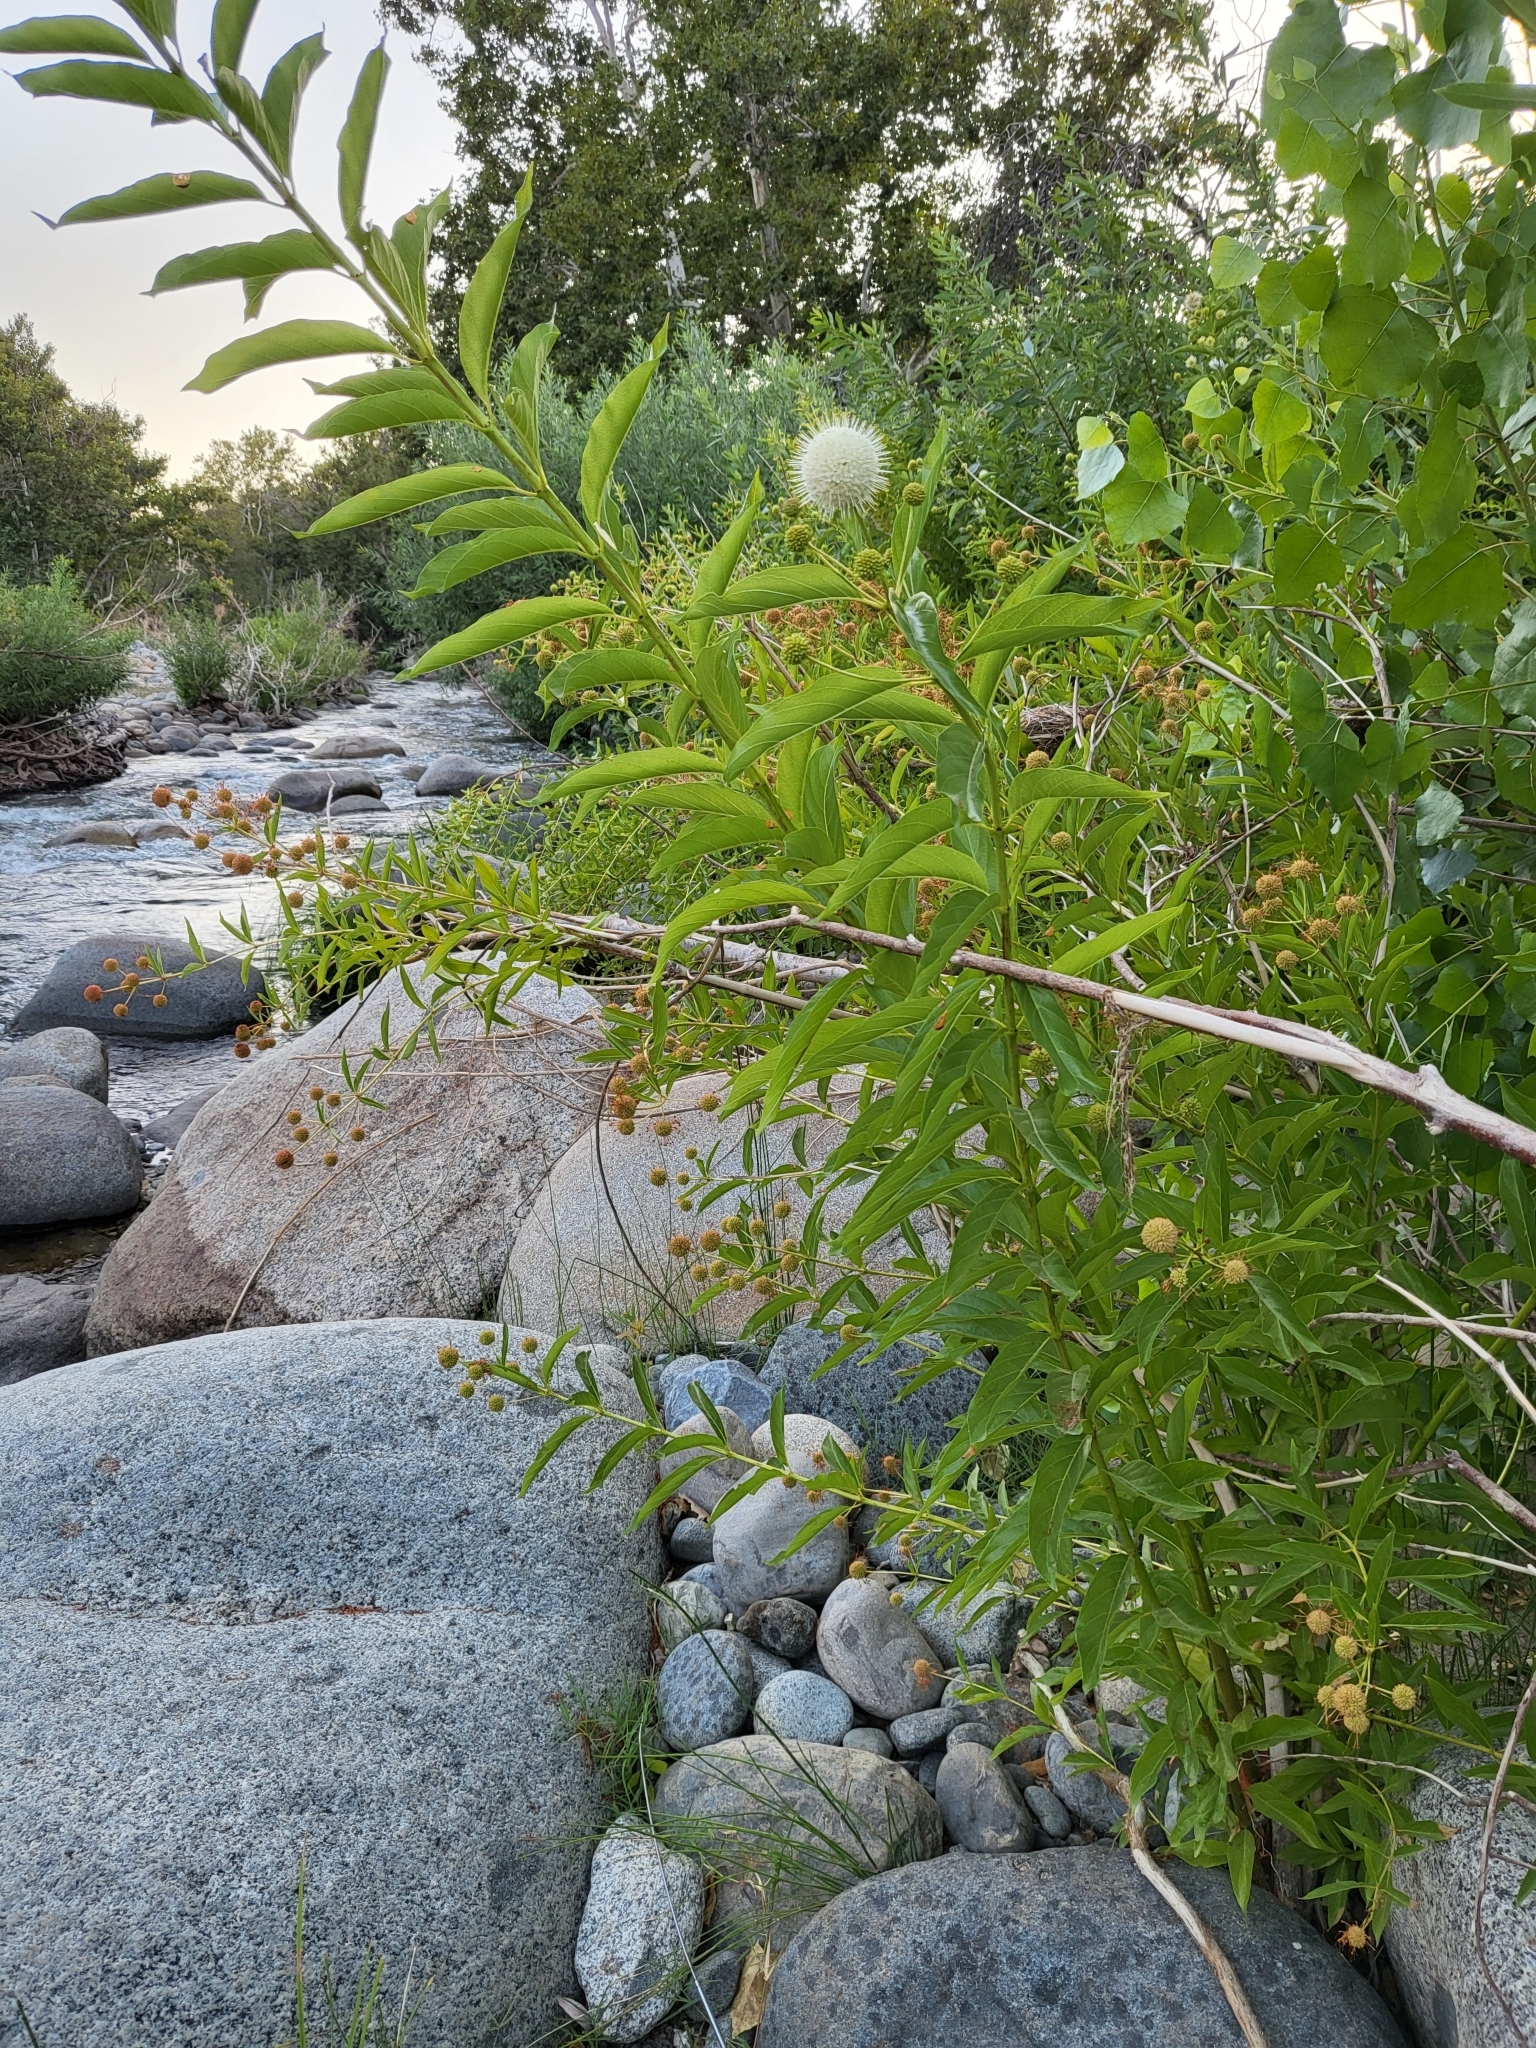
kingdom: Plantae
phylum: Tracheophyta
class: Magnoliopsida
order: Gentianales
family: Rubiaceae
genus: Cephalanthus
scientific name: Cephalanthus occidentalis
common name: Button-willow
